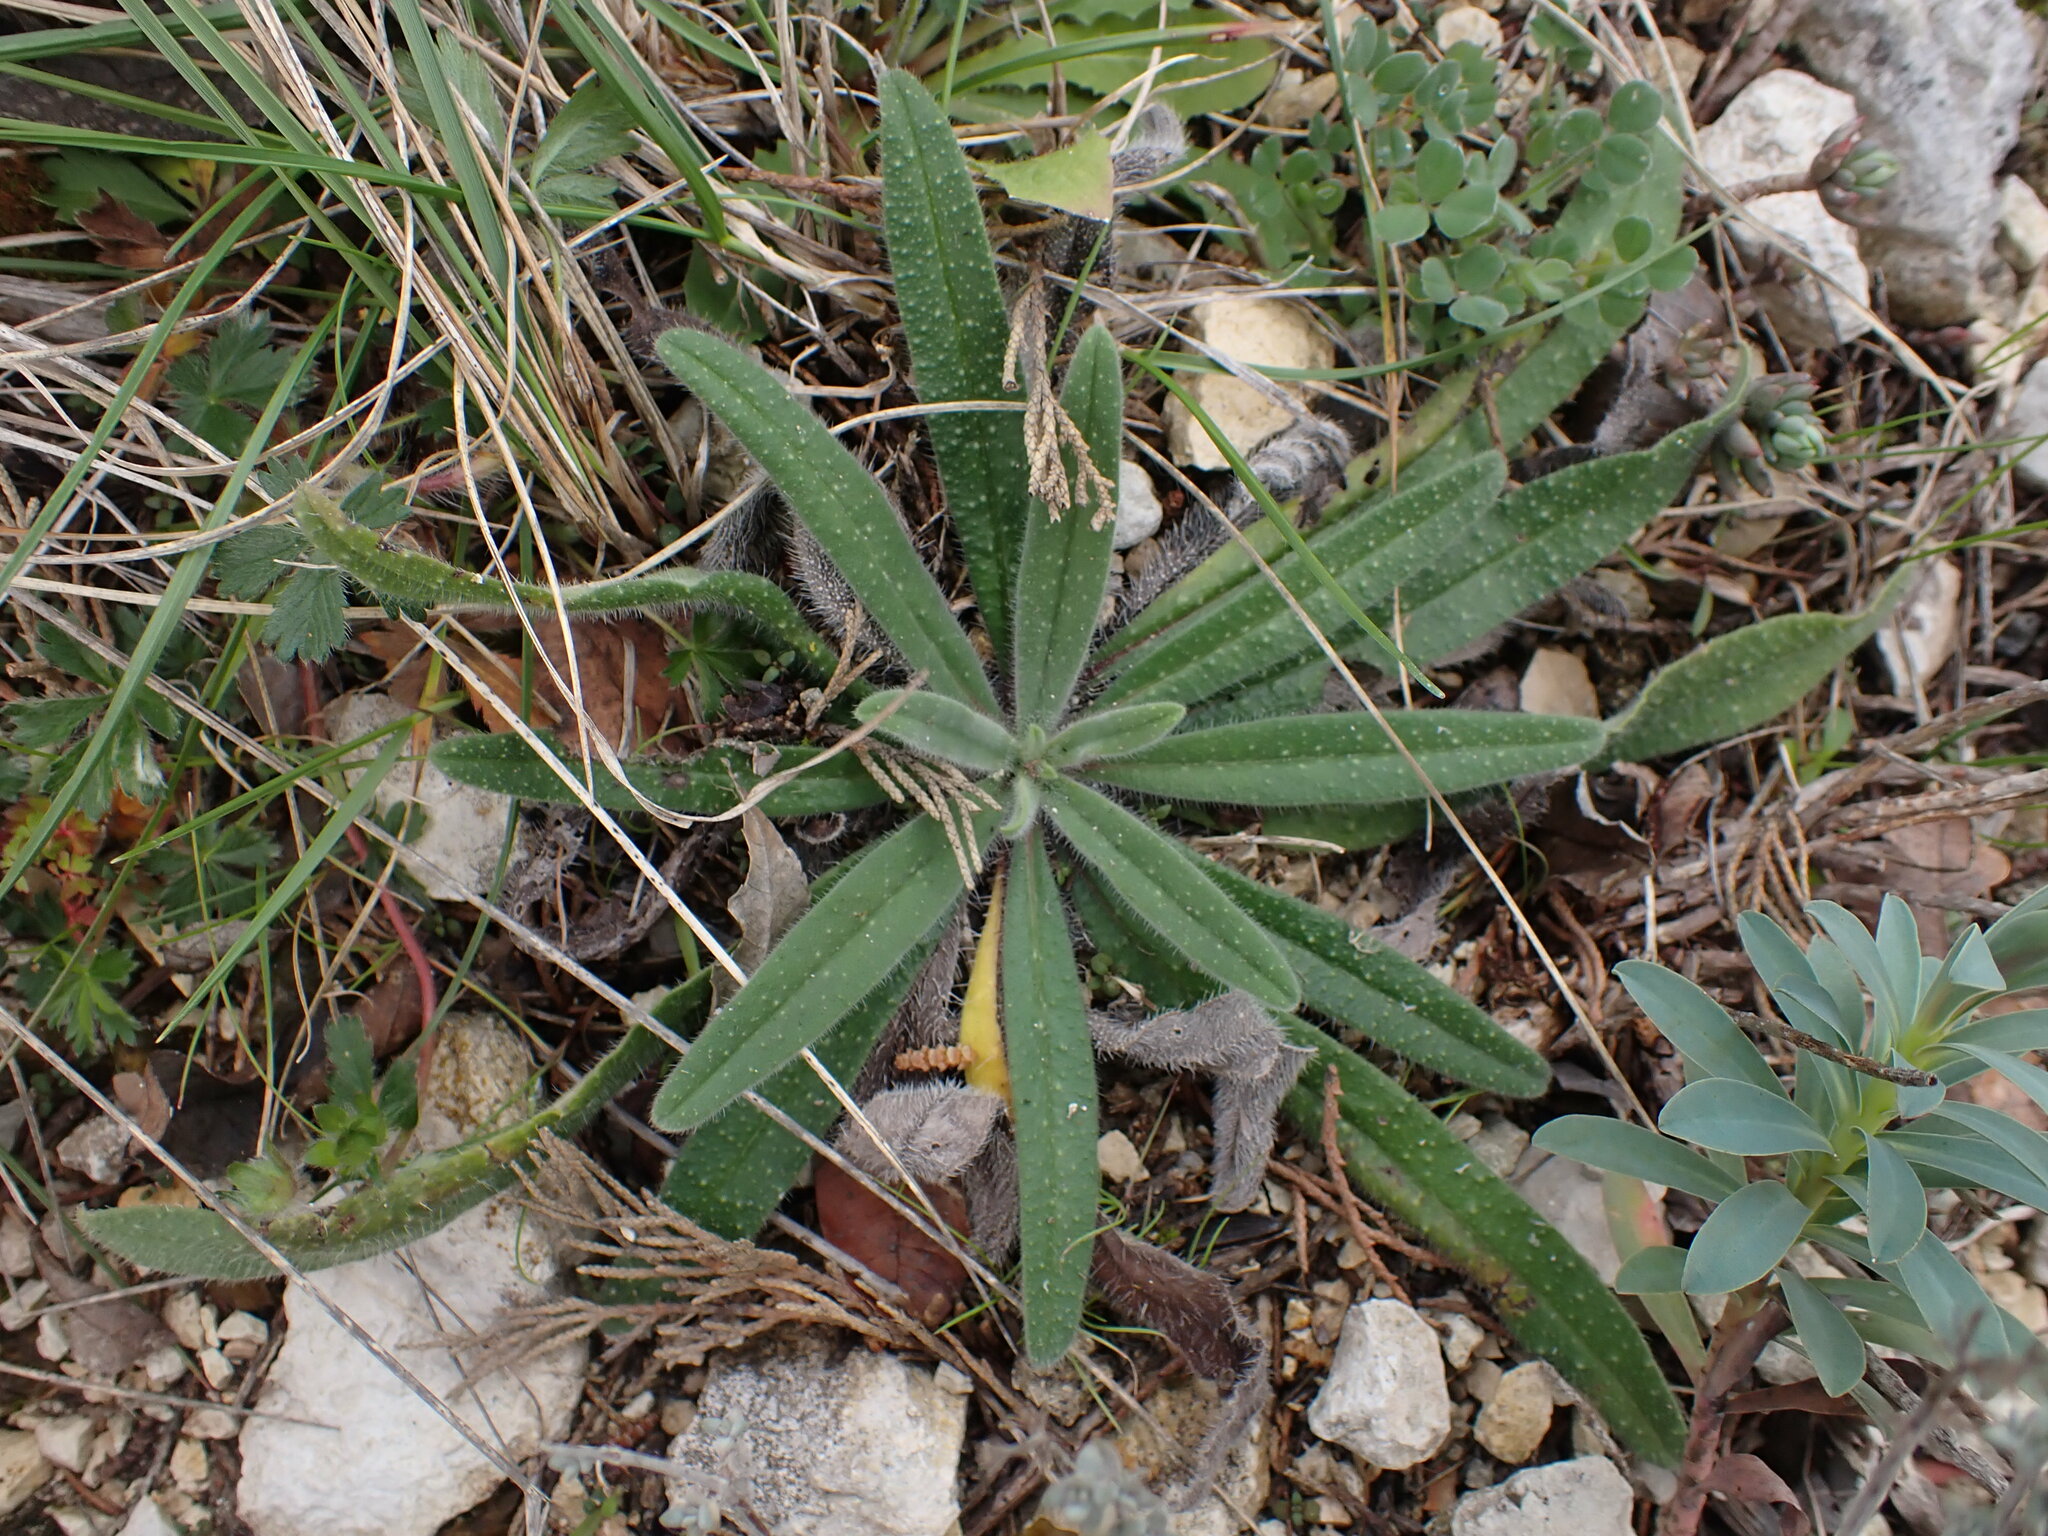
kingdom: Plantae
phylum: Tracheophyta
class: Magnoliopsida
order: Boraginales
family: Boraginaceae
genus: Echium
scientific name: Echium vulgare
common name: Common viper's bugloss
